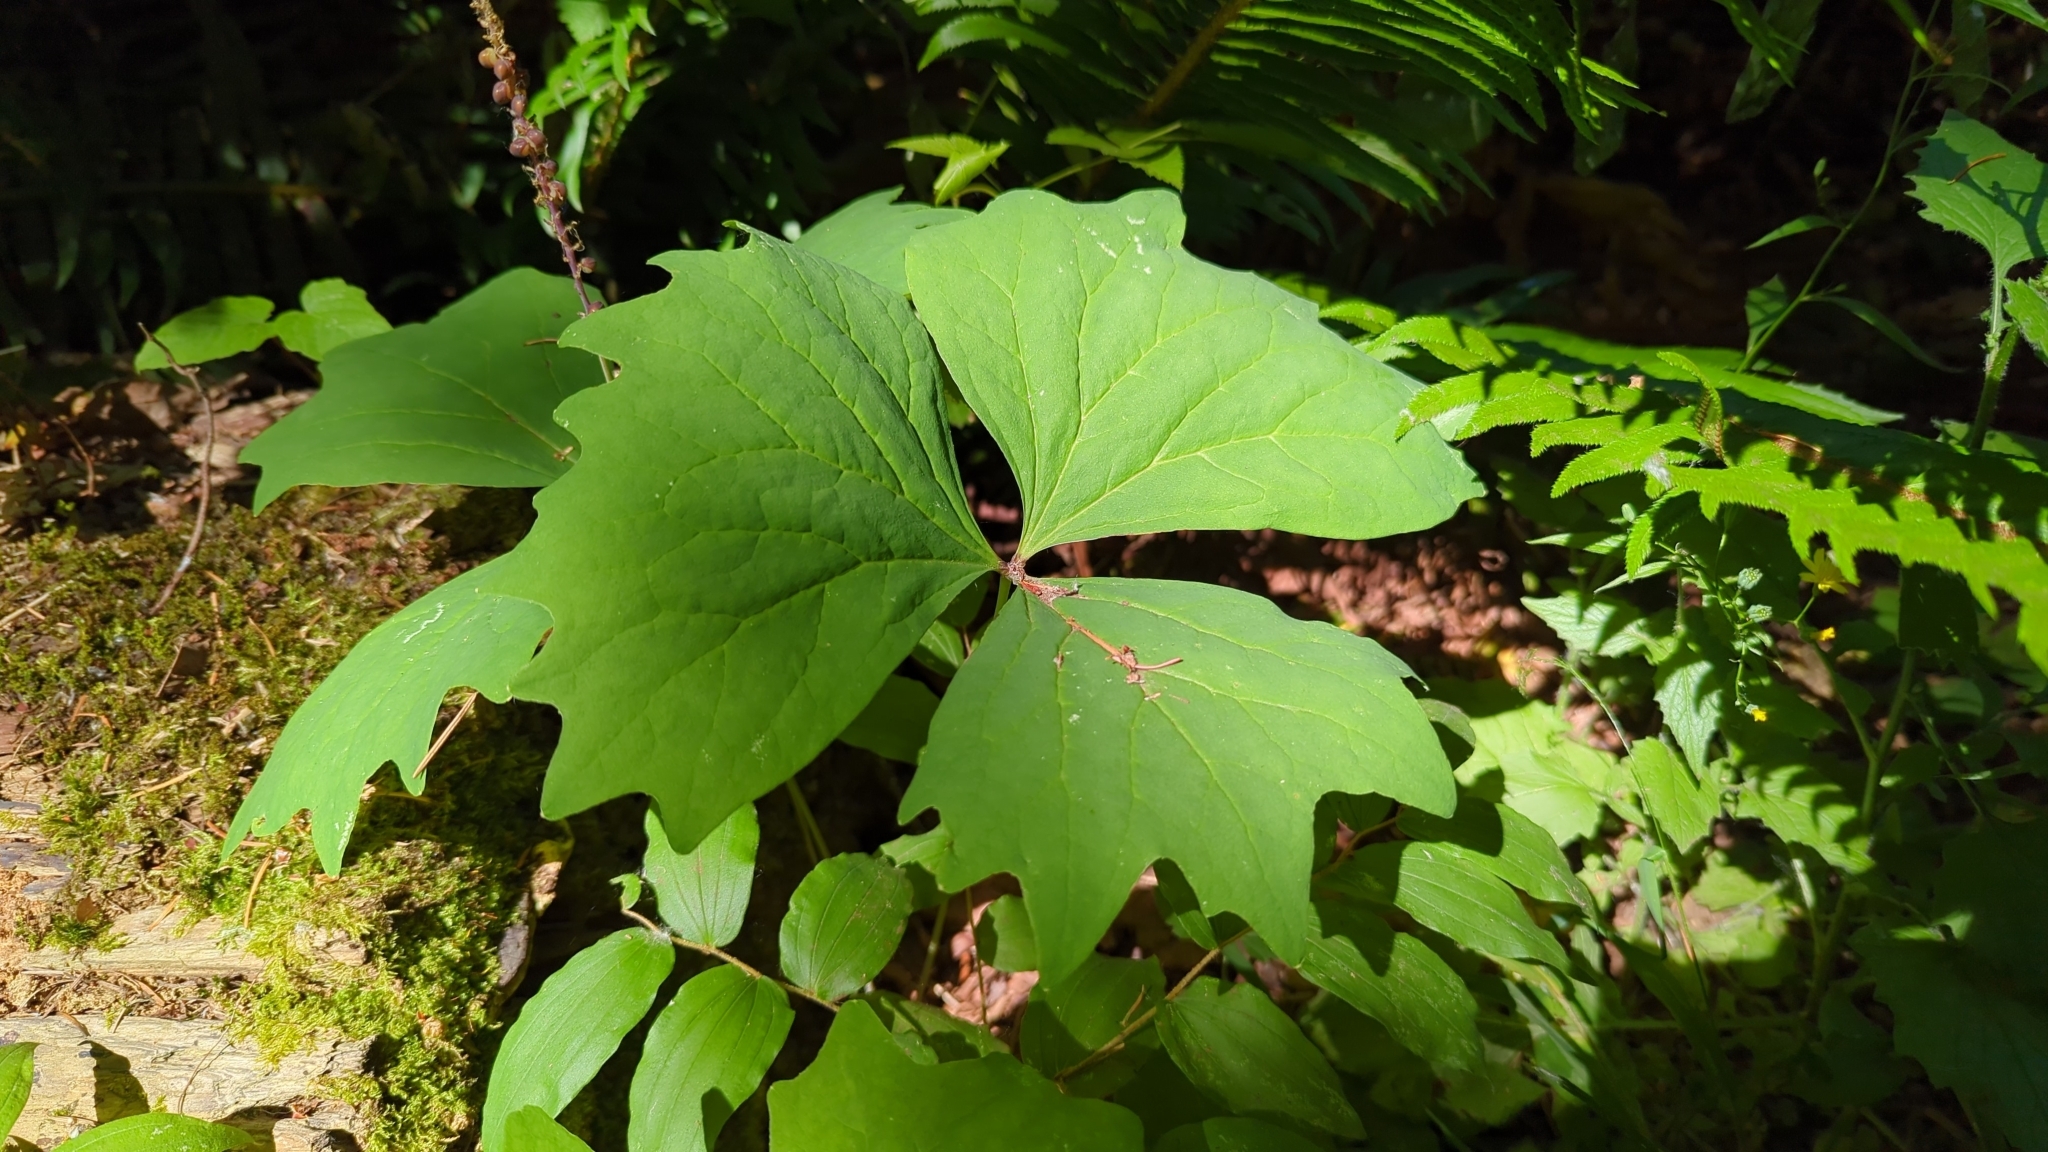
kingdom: Plantae
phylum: Tracheophyta
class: Magnoliopsida
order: Ranunculales
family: Berberidaceae
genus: Achlys
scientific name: Achlys triphylla
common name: Vanilla-leaf
